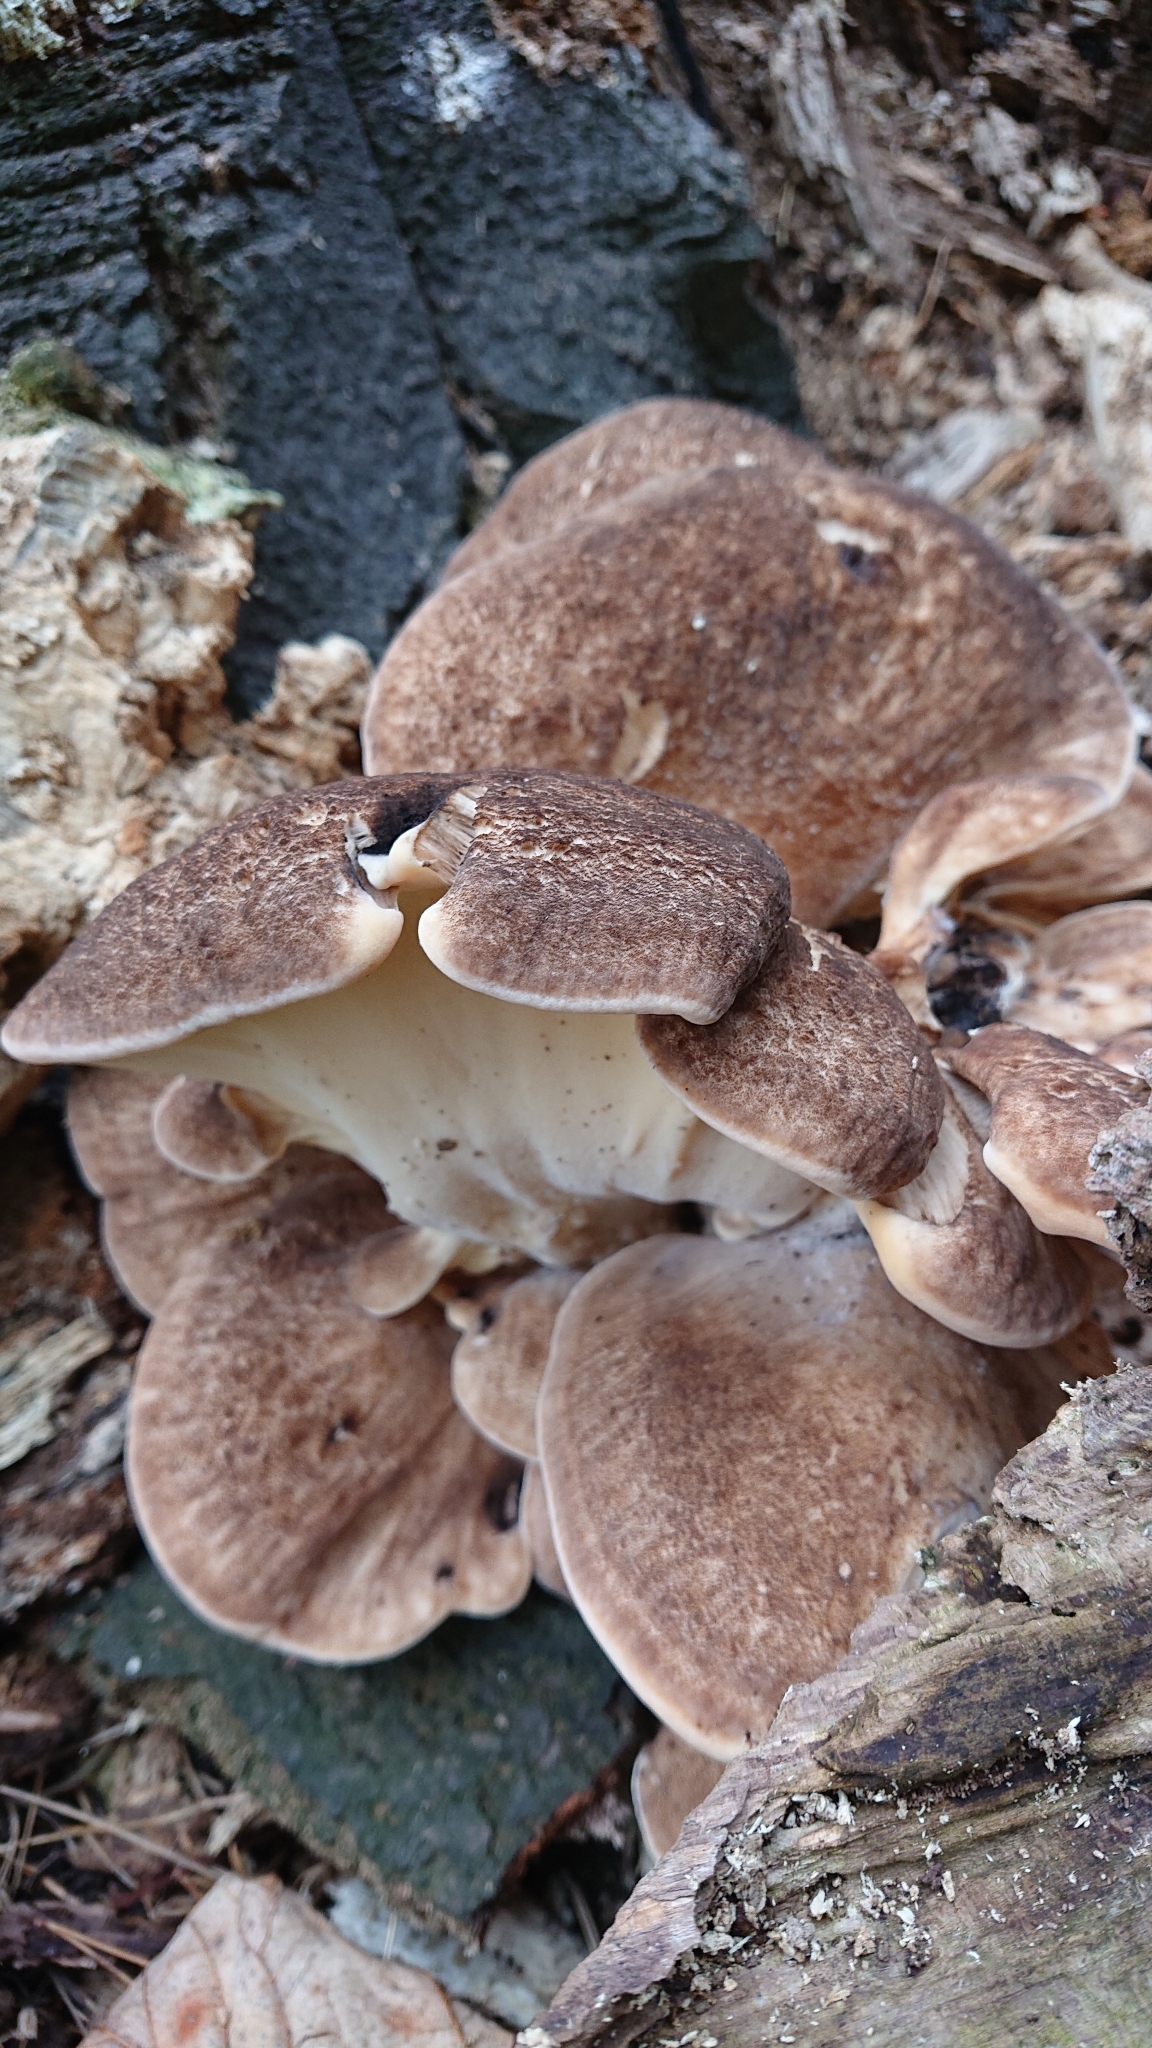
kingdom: Fungi
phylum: Basidiomycota
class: Agaricomycetes
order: Polyporales
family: Meripilaceae
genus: Meripilus
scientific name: Meripilus giganteus
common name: Giant polypore
